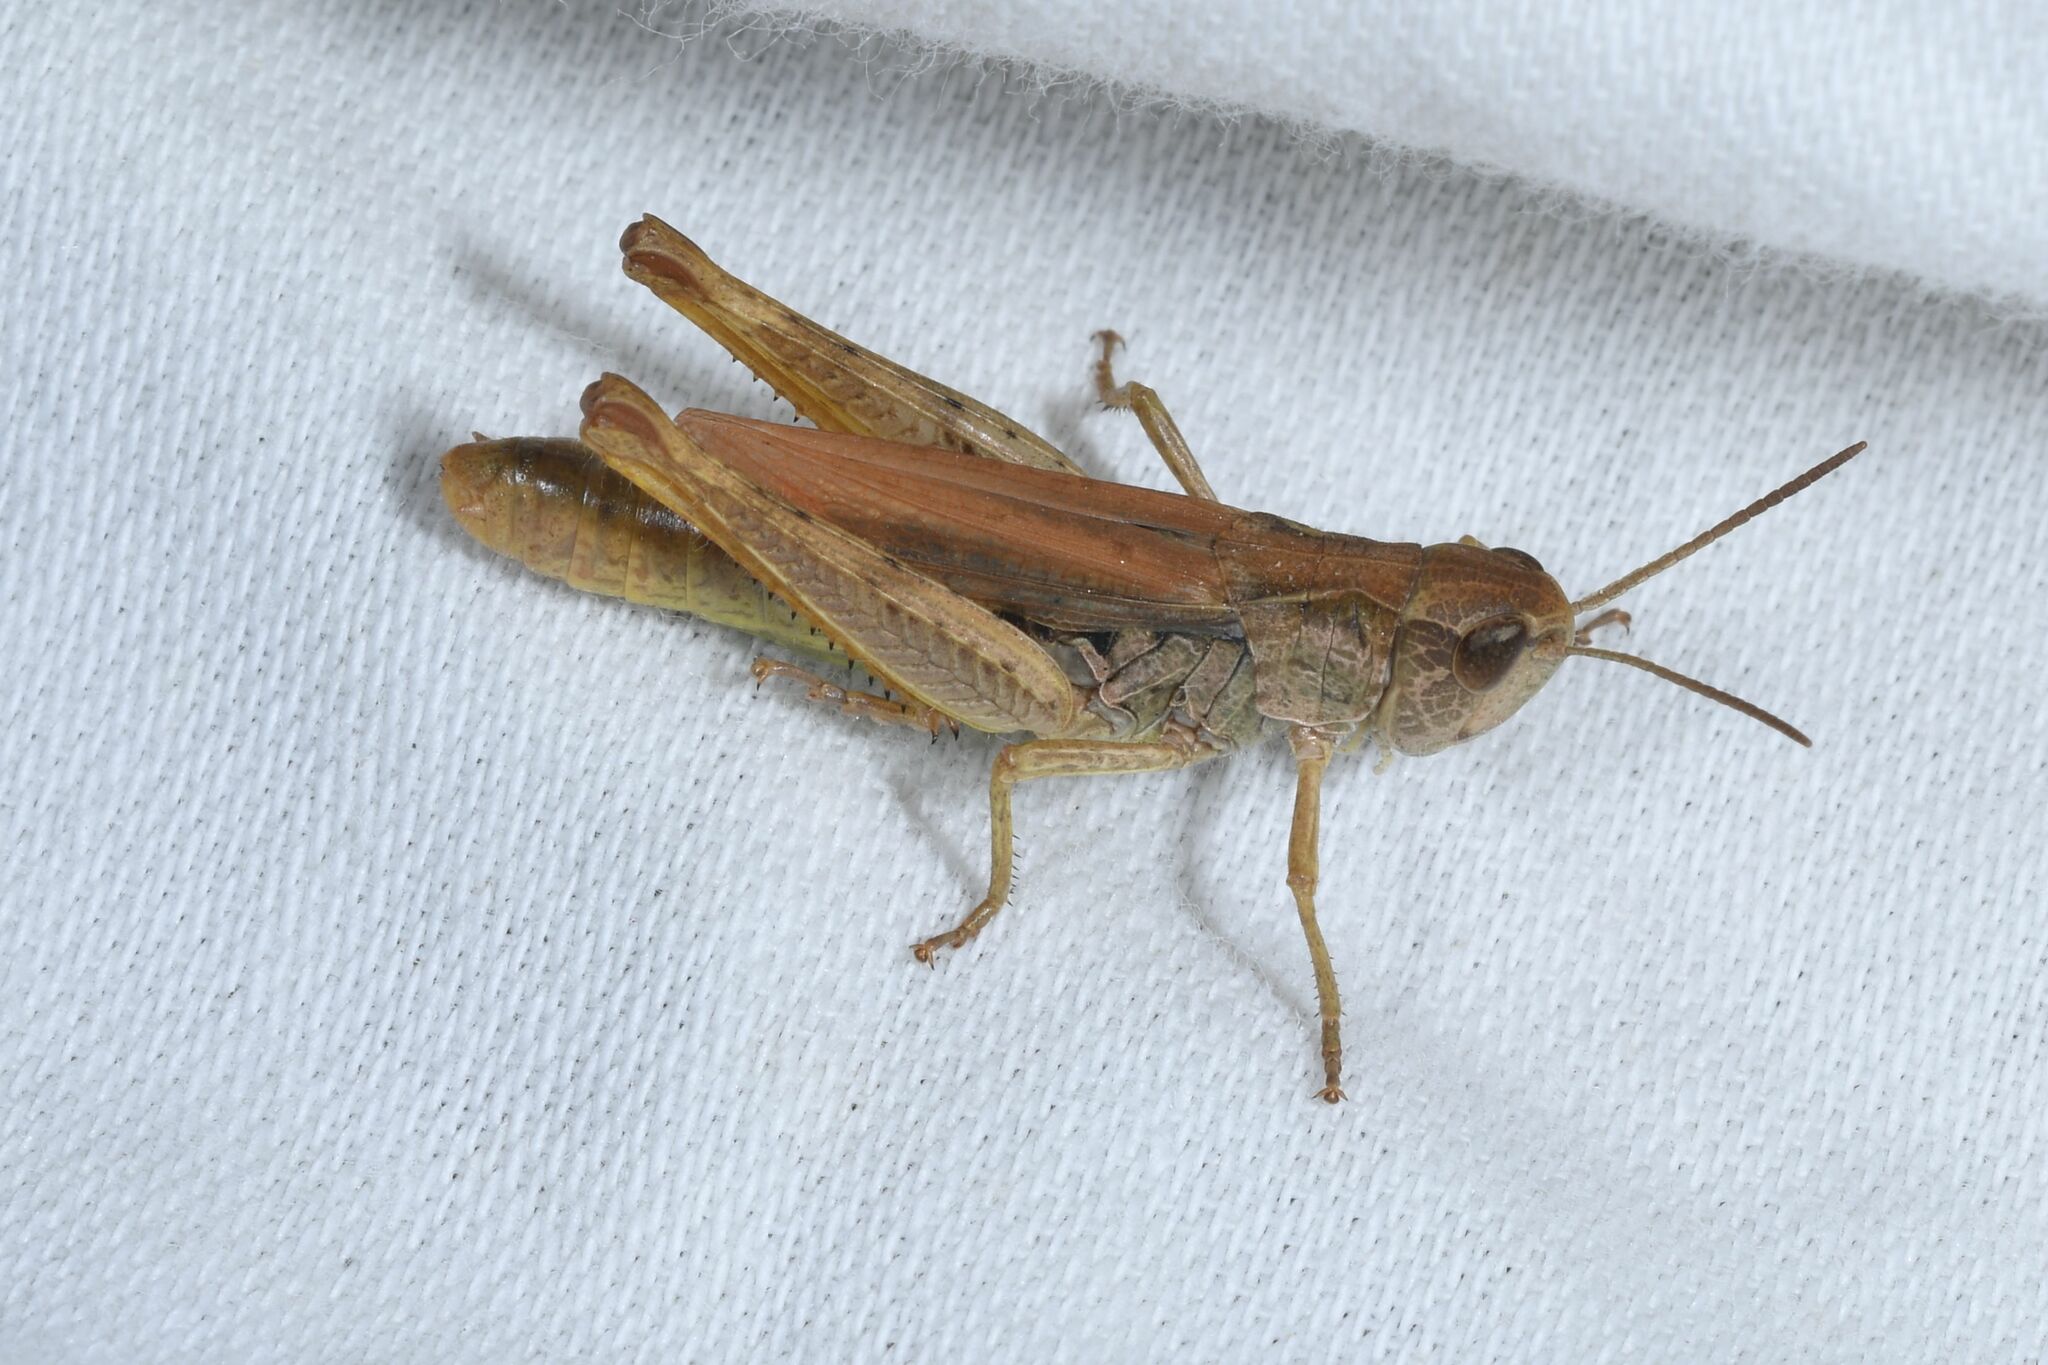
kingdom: Animalia
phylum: Arthropoda
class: Insecta
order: Orthoptera
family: Acrididae
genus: Chorthippus
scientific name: Chorthippus apricarius
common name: Upland field grasshopper
